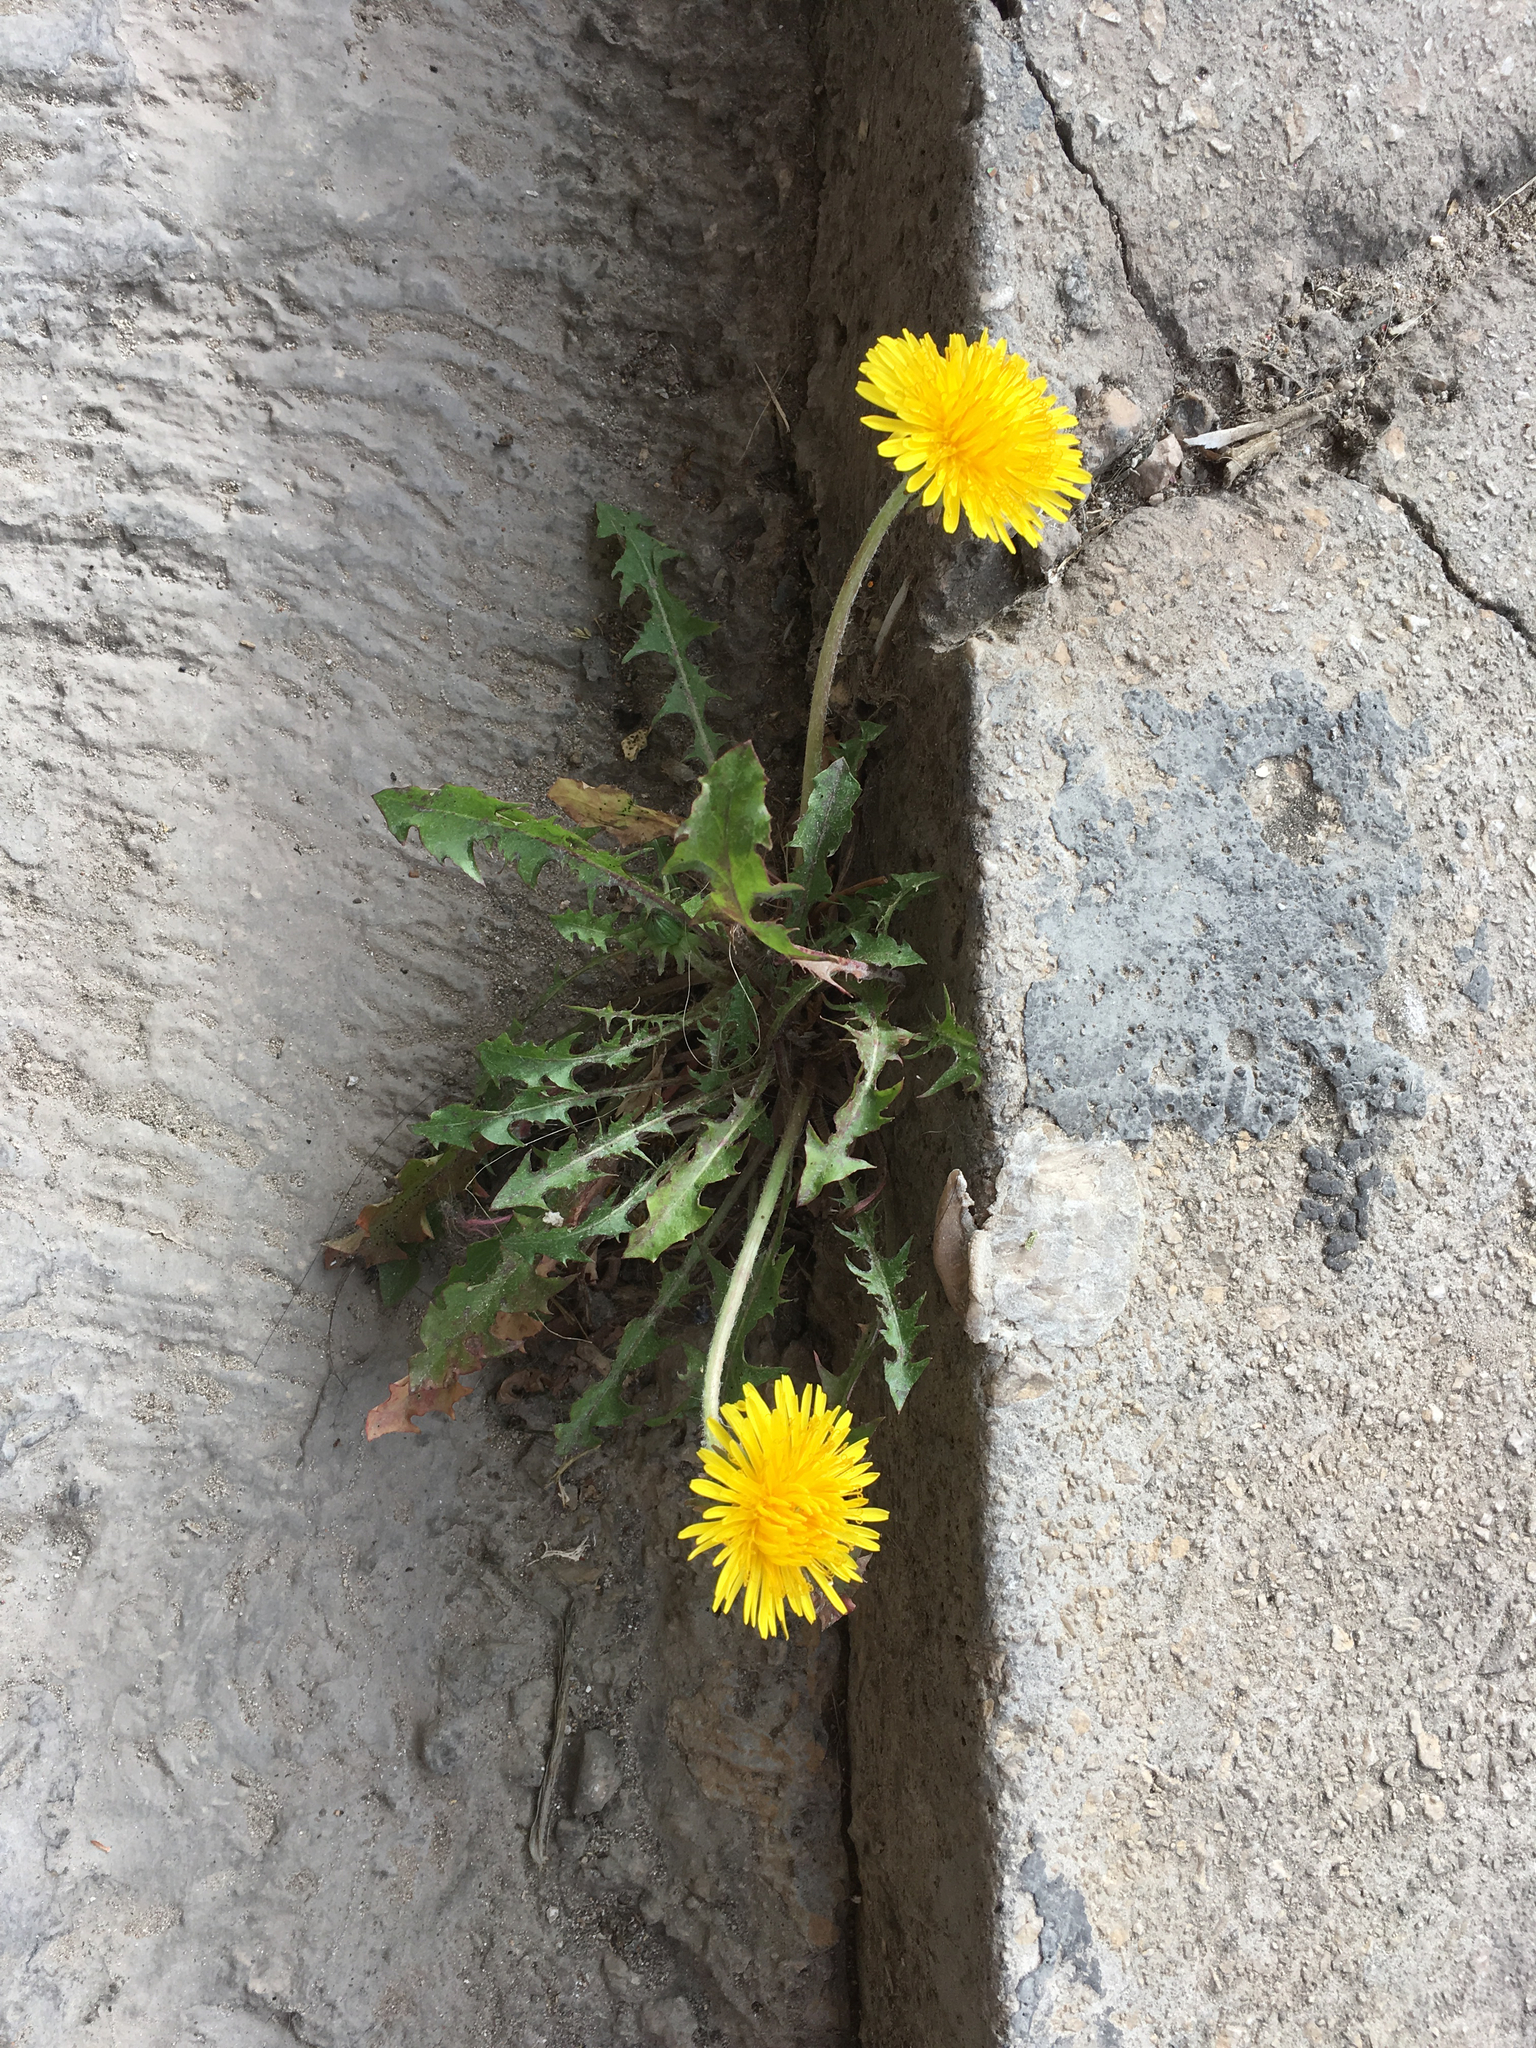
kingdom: Plantae
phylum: Tracheophyta
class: Magnoliopsida
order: Asterales
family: Asteraceae
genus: Taraxacum
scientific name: Taraxacum officinale
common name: Common dandelion
